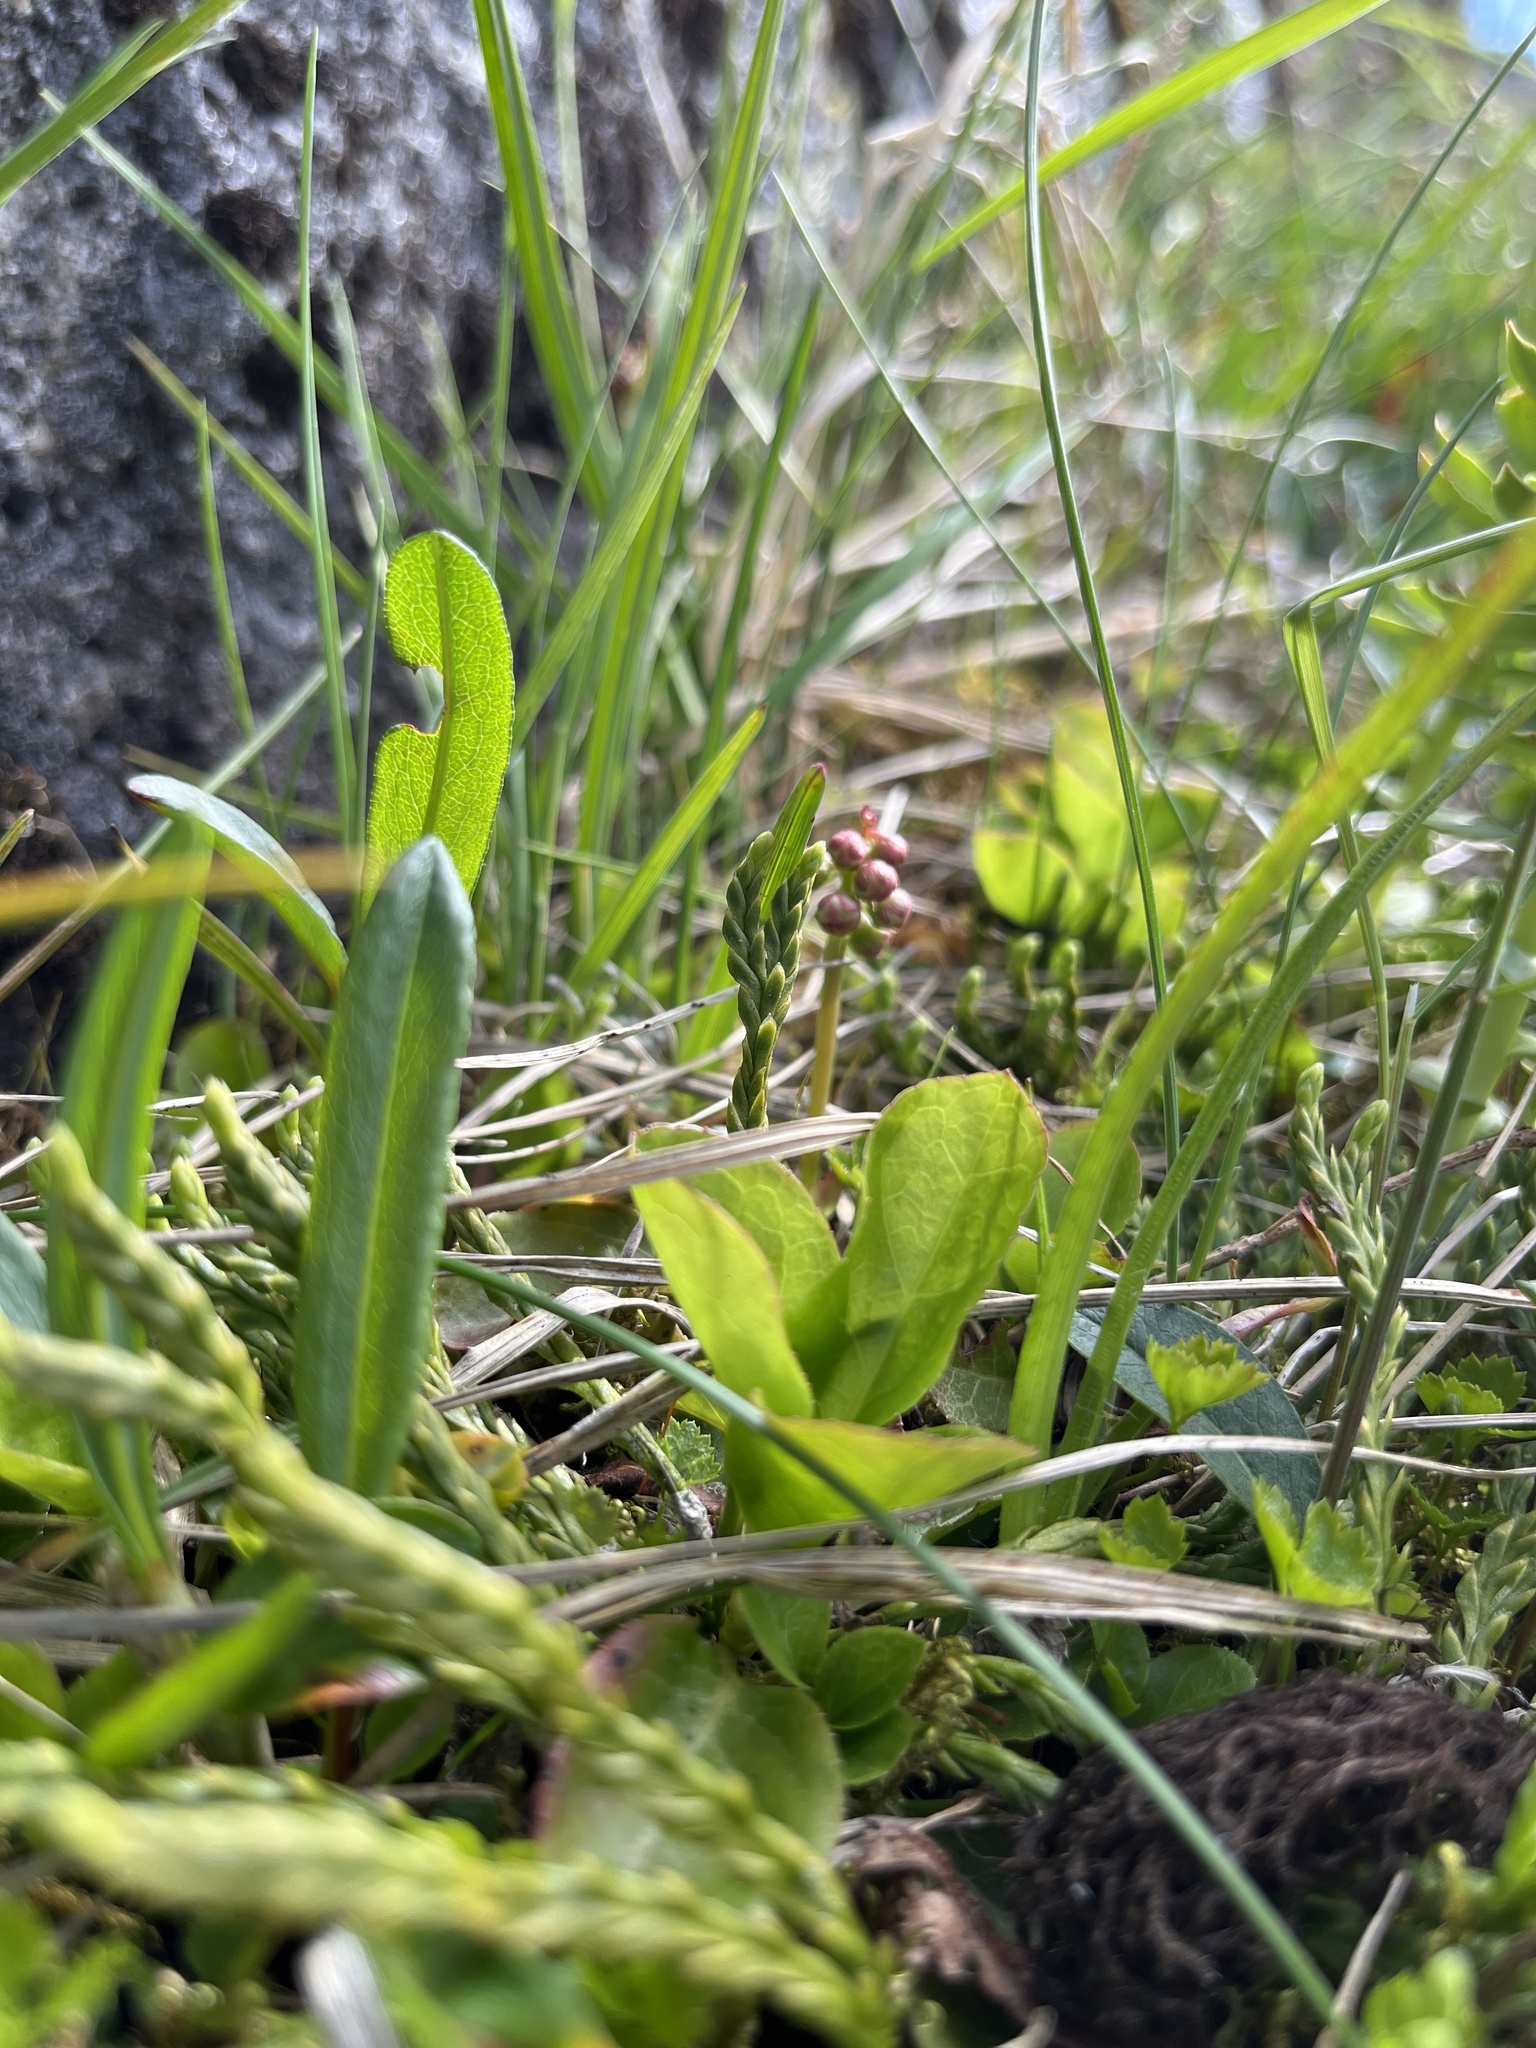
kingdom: Plantae
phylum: Tracheophyta
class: Magnoliopsida
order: Ericales
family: Ericaceae
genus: Pyrola
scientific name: Pyrola minor
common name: Common wintergreen
